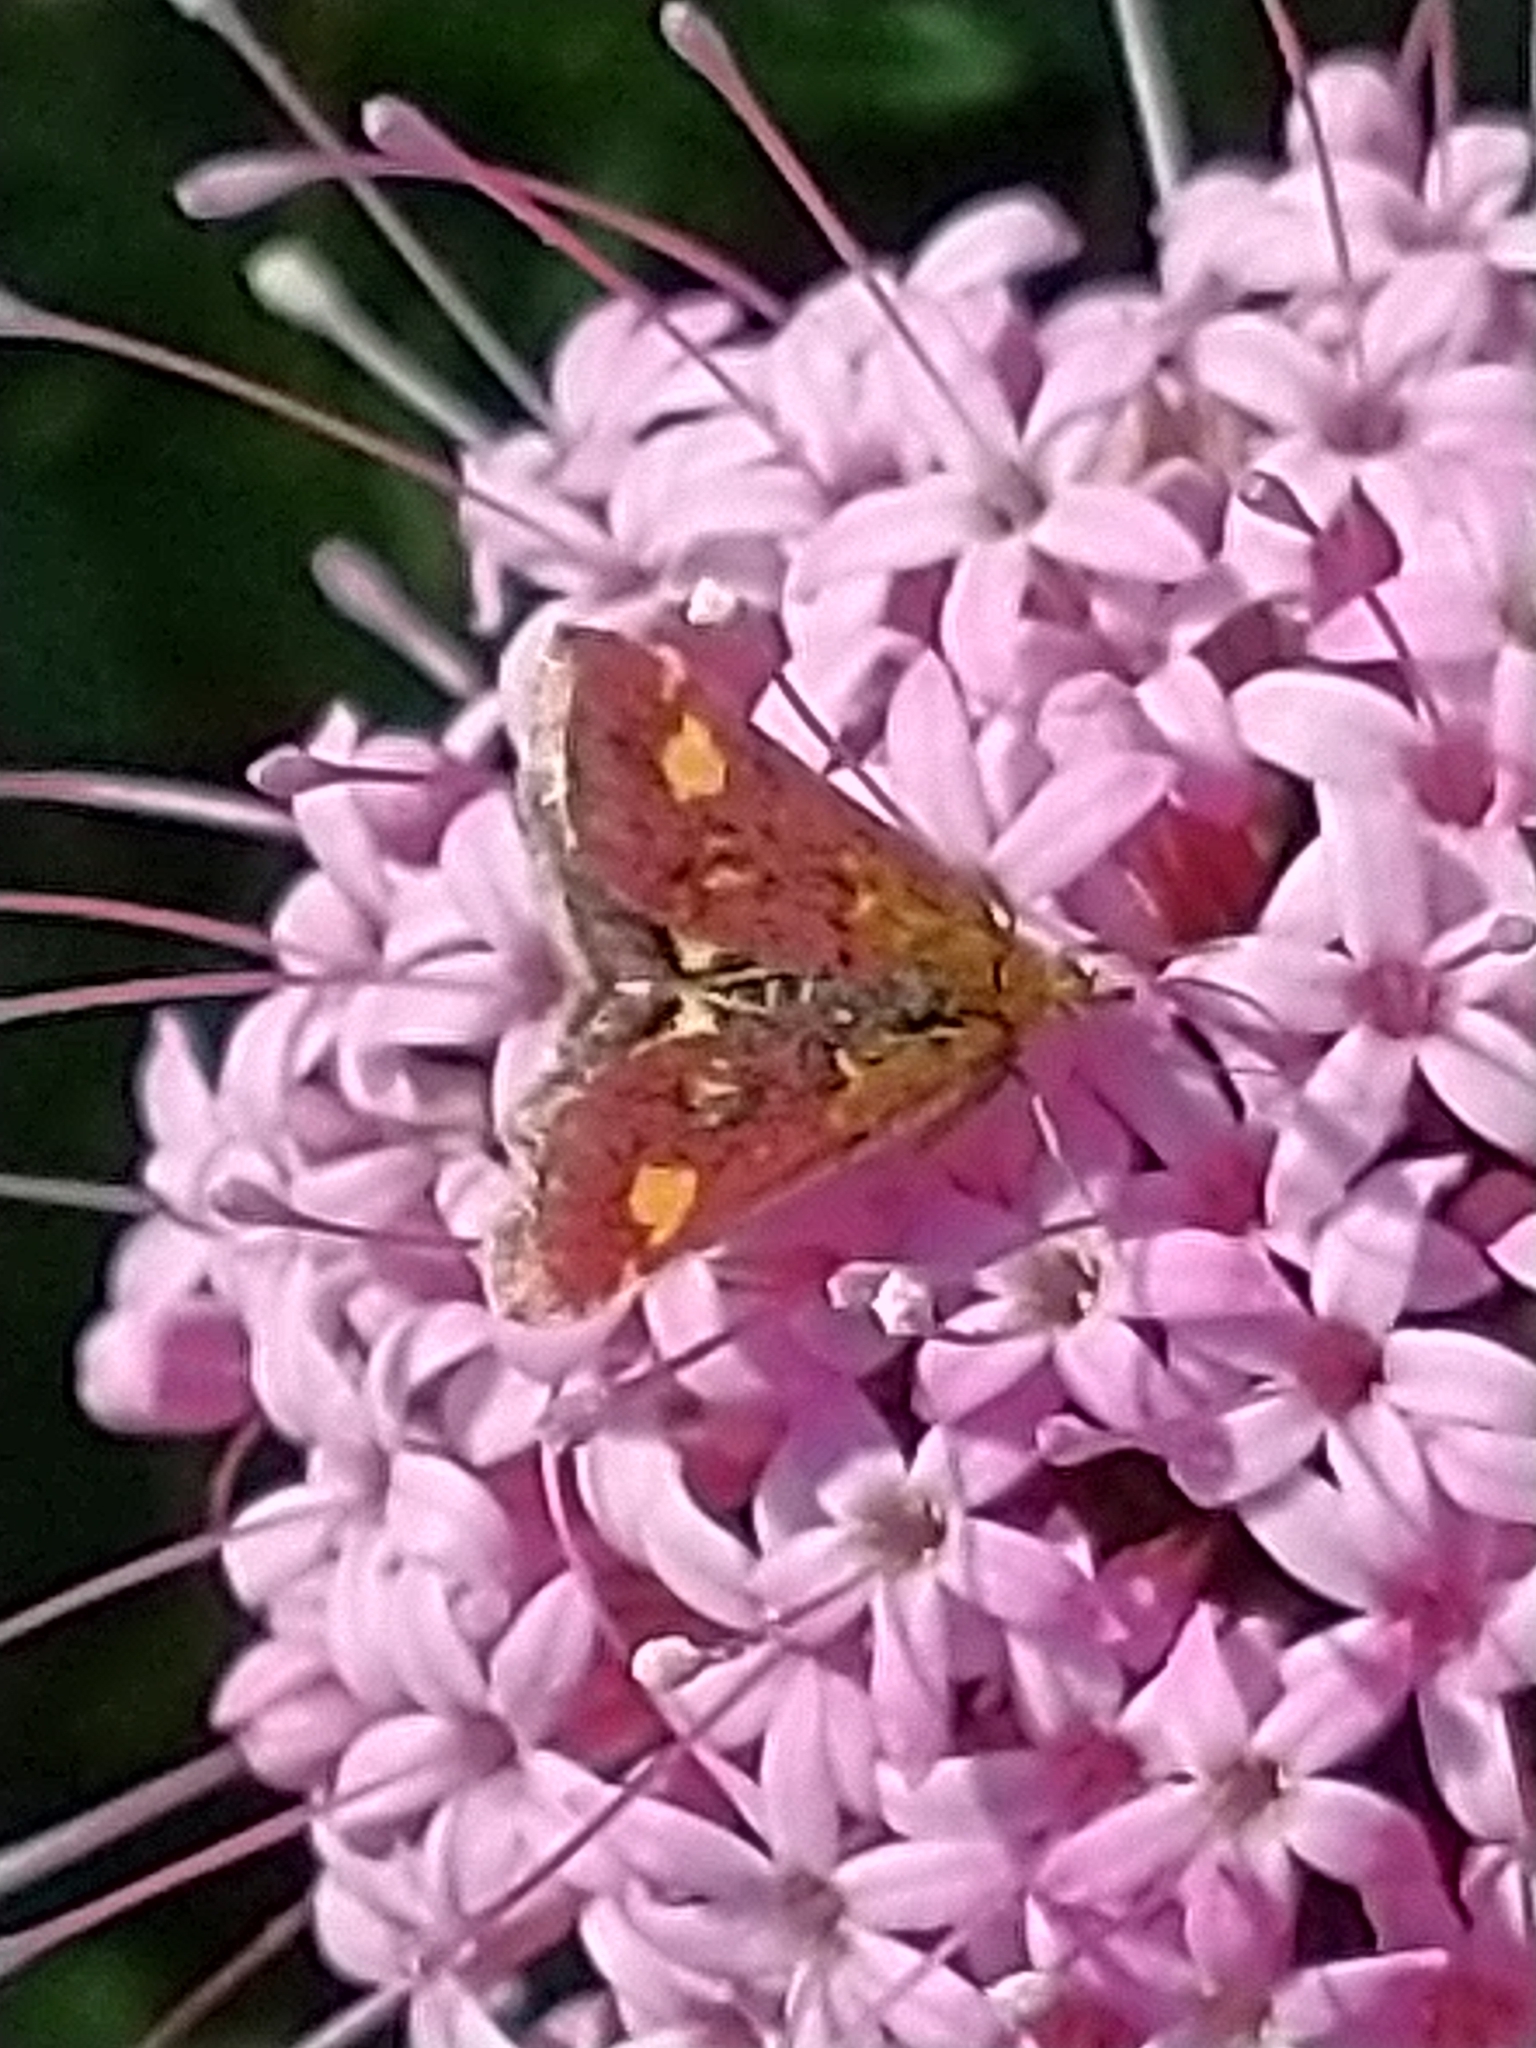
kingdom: Animalia
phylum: Arthropoda
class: Insecta
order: Lepidoptera
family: Crambidae
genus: Pyrausta
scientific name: Pyrausta aurata
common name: Small purple & gold
